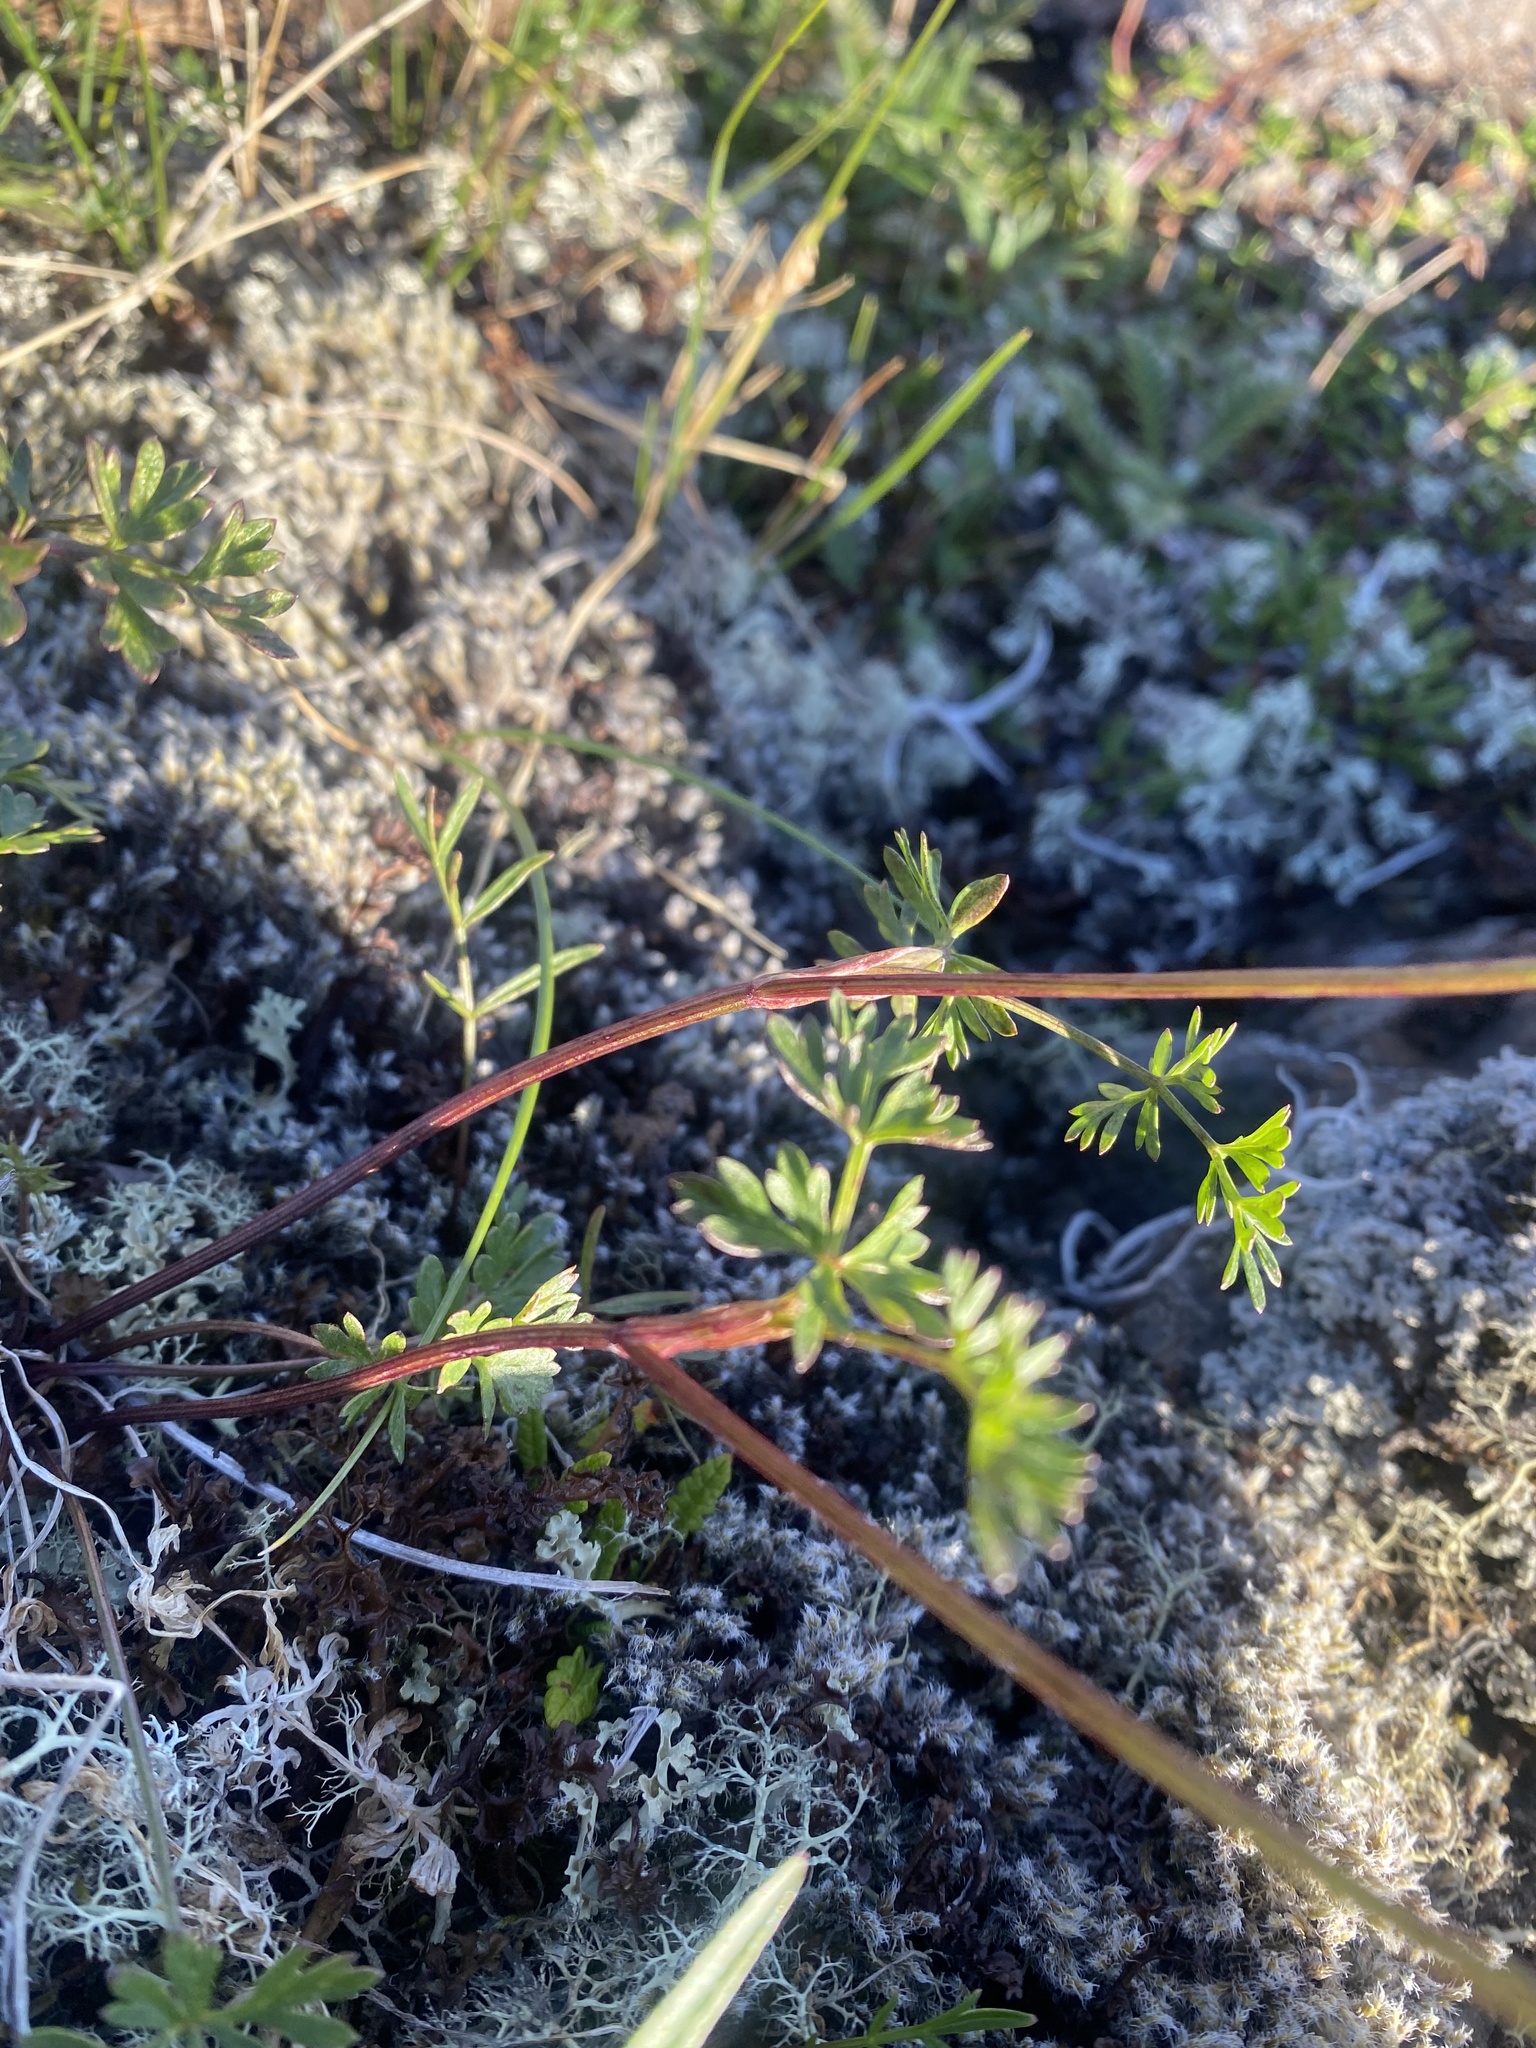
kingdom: Plantae
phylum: Tracheophyta
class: Magnoliopsida
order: Apiales
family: Apiaceae
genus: Pachypleurum
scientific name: Pachypleurum mutellinoides
